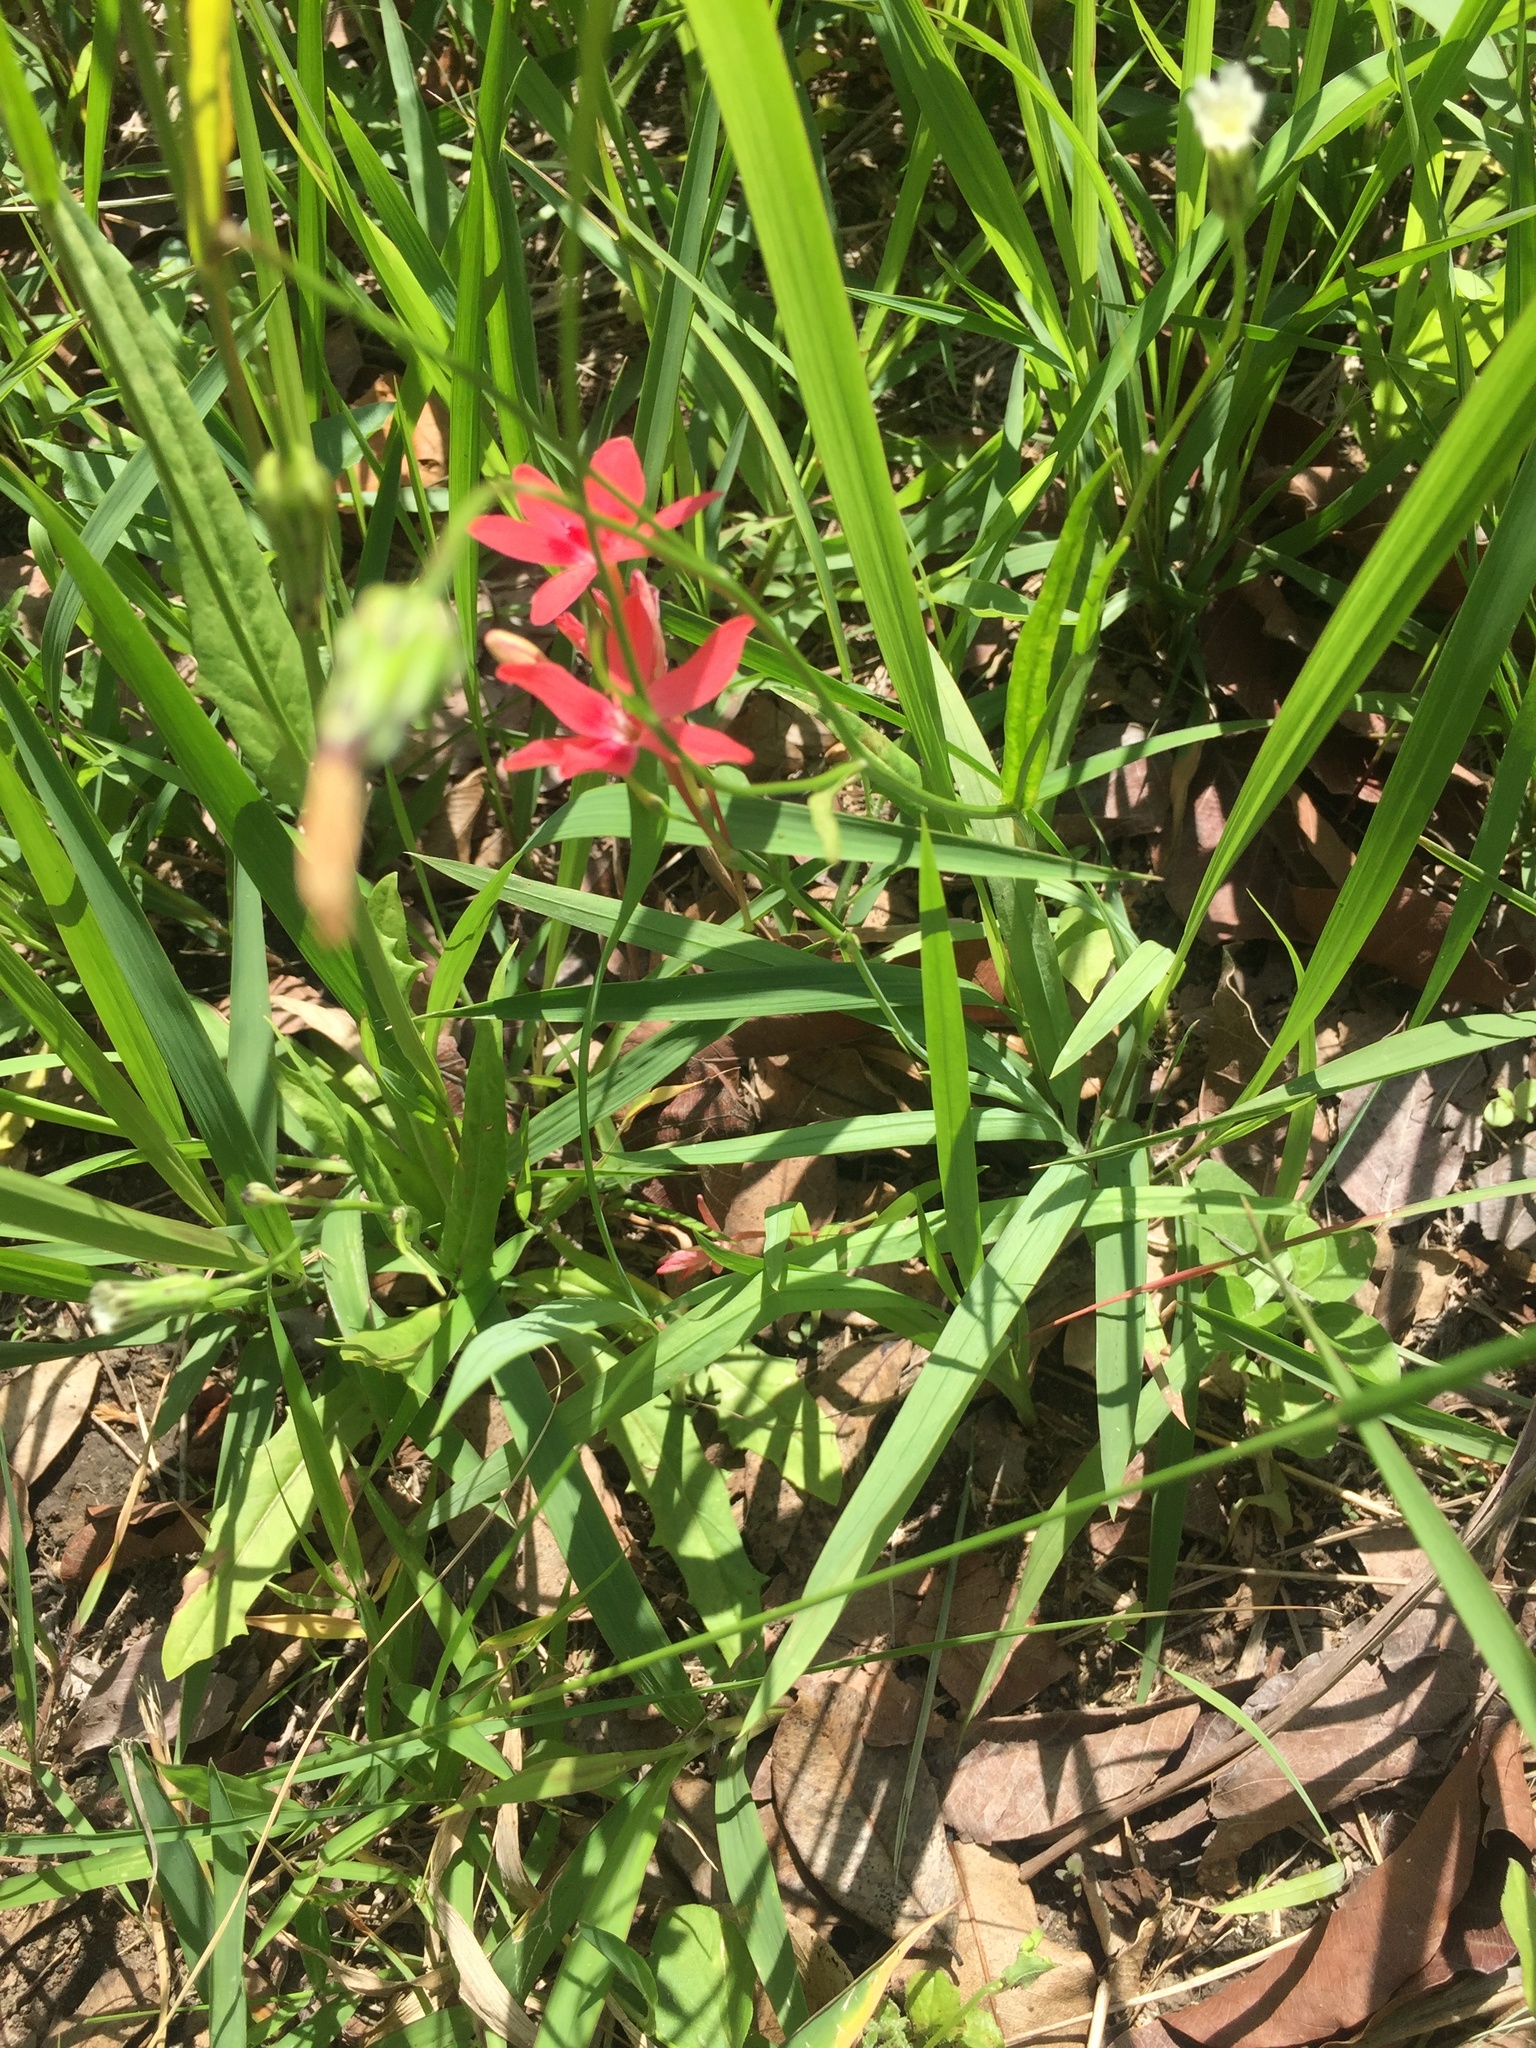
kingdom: Plantae
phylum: Tracheophyta
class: Liliopsida
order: Asparagales
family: Iridaceae
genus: Freesia
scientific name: Freesia laxa
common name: False freesia
